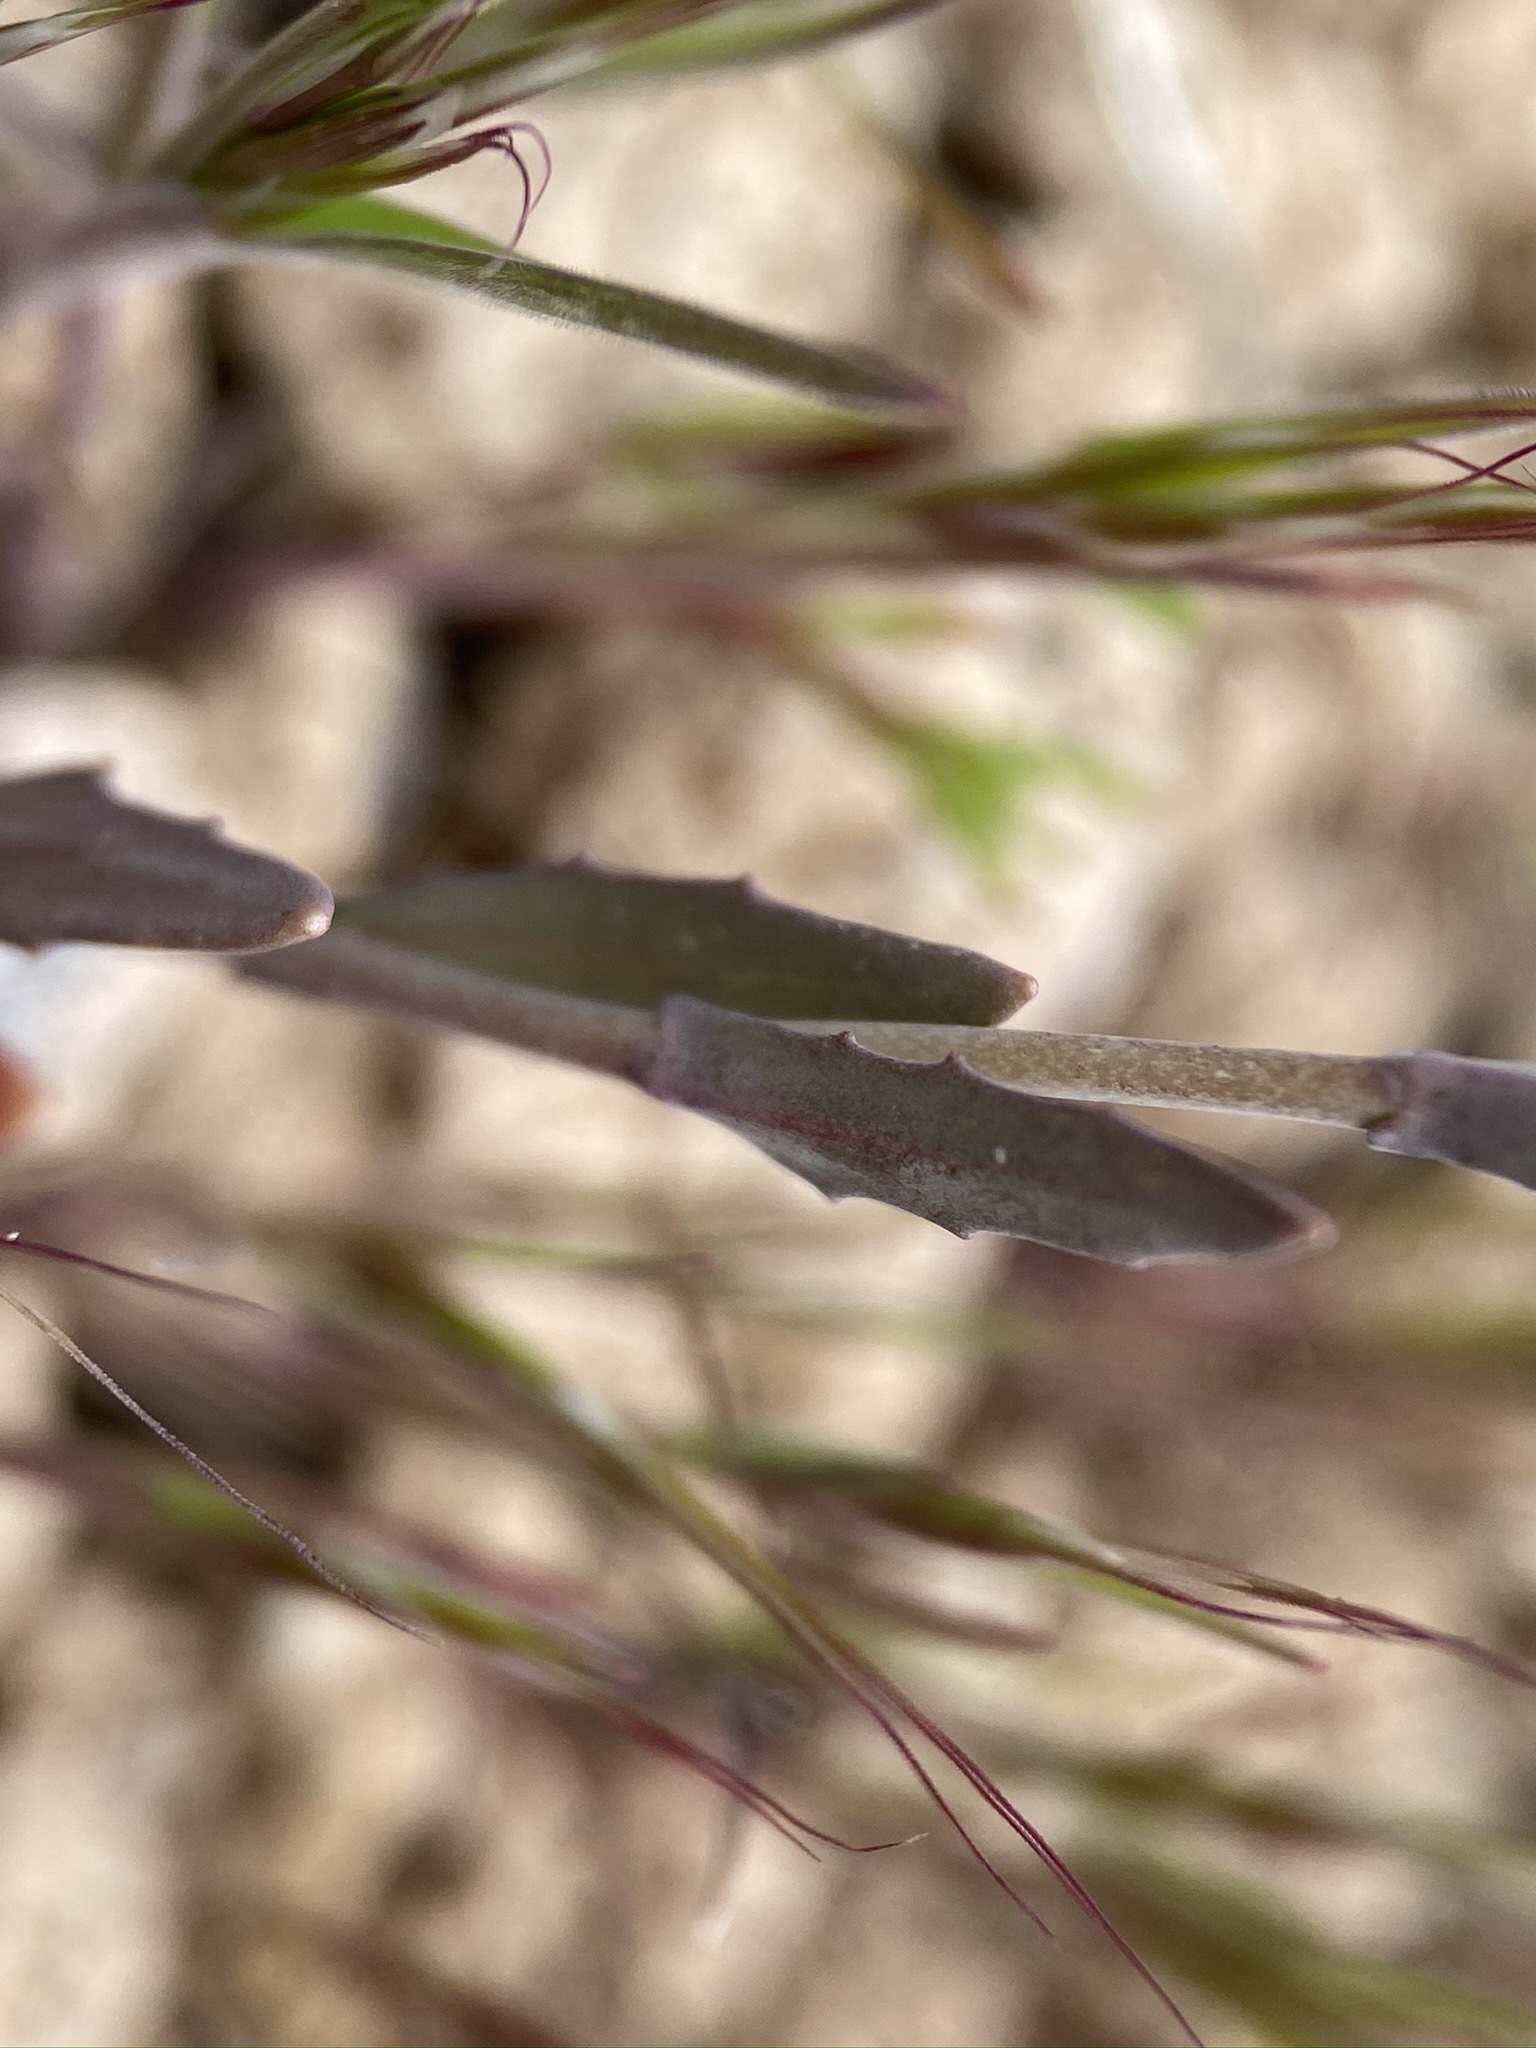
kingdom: Plantae
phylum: Tracheophyta
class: Magnoliopsida
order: Brassicales
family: Brassicaceae
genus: Thysanocarpus
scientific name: Thysanocarpus curvipes
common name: Sand fringepod
